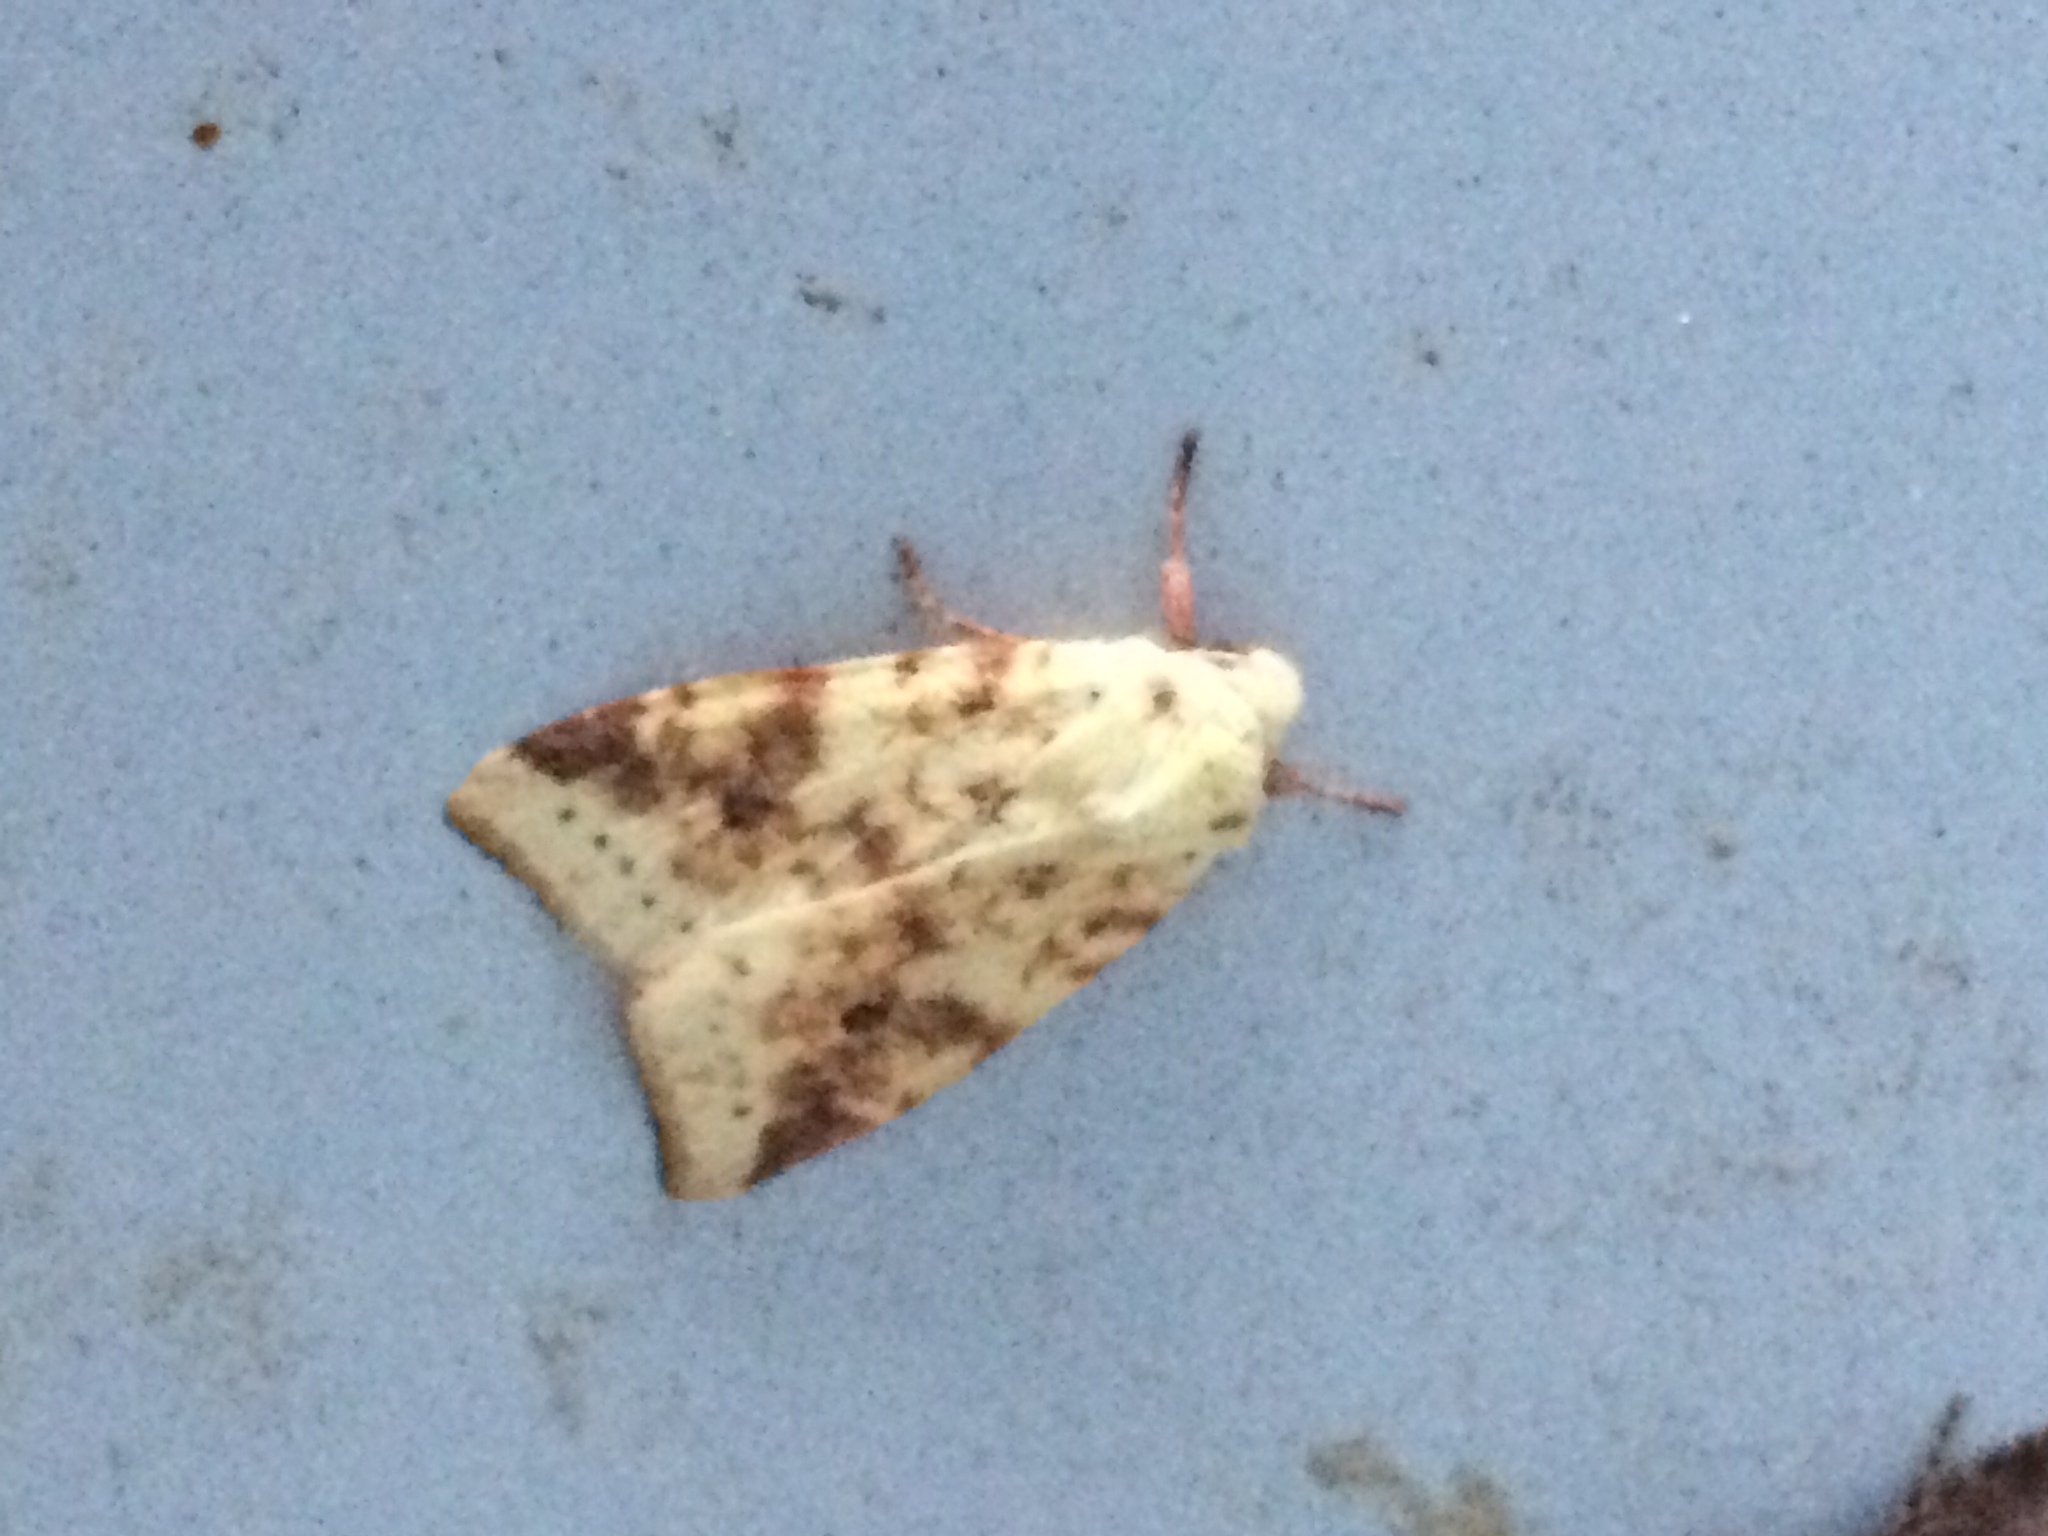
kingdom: Animalia
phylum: Arthropoda
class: Insecta
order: Lepidoptera
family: Noctuidae
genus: Xanthia
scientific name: Xanthia icteritia
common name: The sallow
